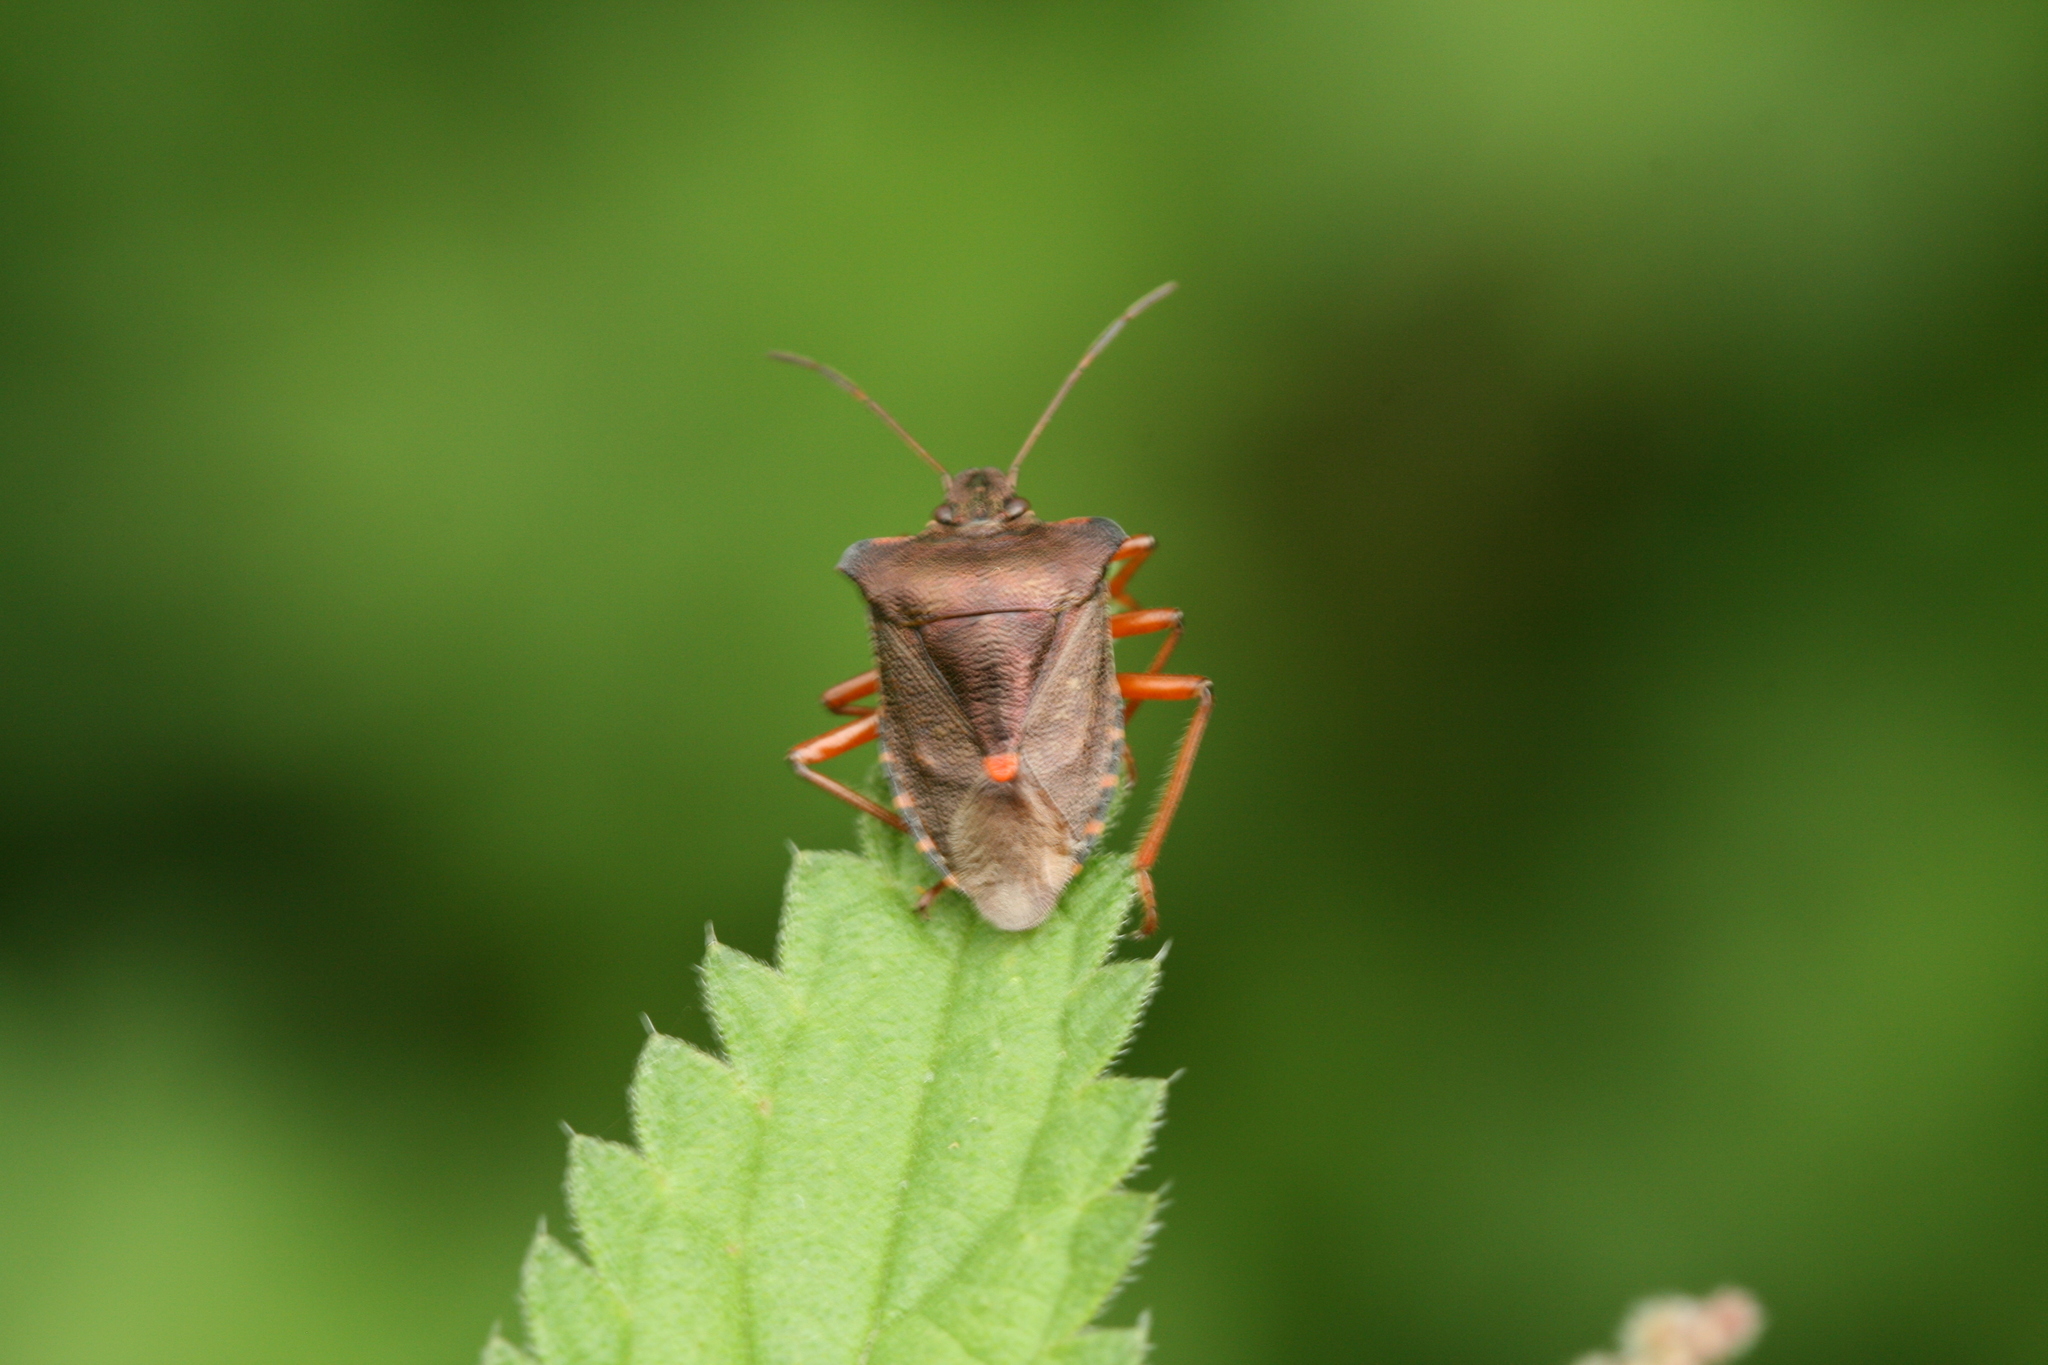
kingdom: Animalia
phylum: Arthropoda
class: Insecta
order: Hemiptera
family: Pentatomidae
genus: Pentatoma
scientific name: Pentatoma rufipes
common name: Forest bug
